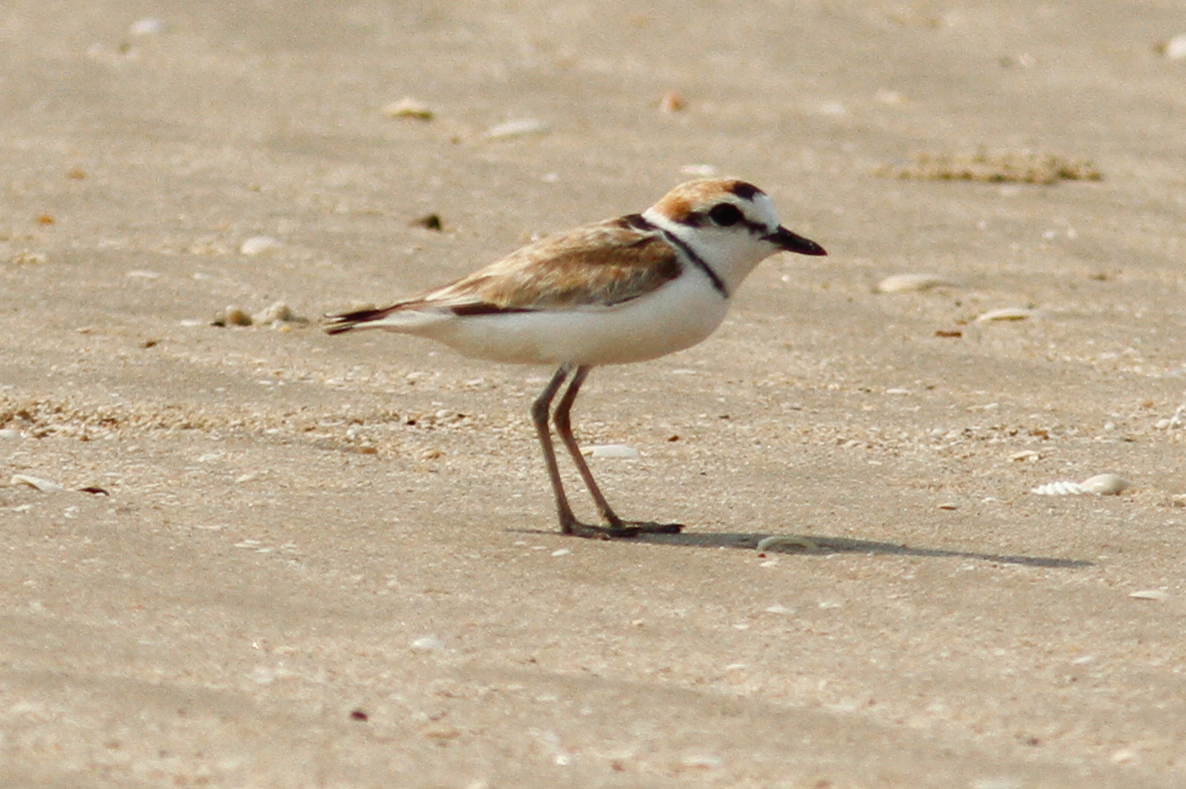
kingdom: Animalia
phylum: Chordata
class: Aves
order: Charadriiformes
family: Charadriidae
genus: Anarhynchus
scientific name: Anarhynchus
